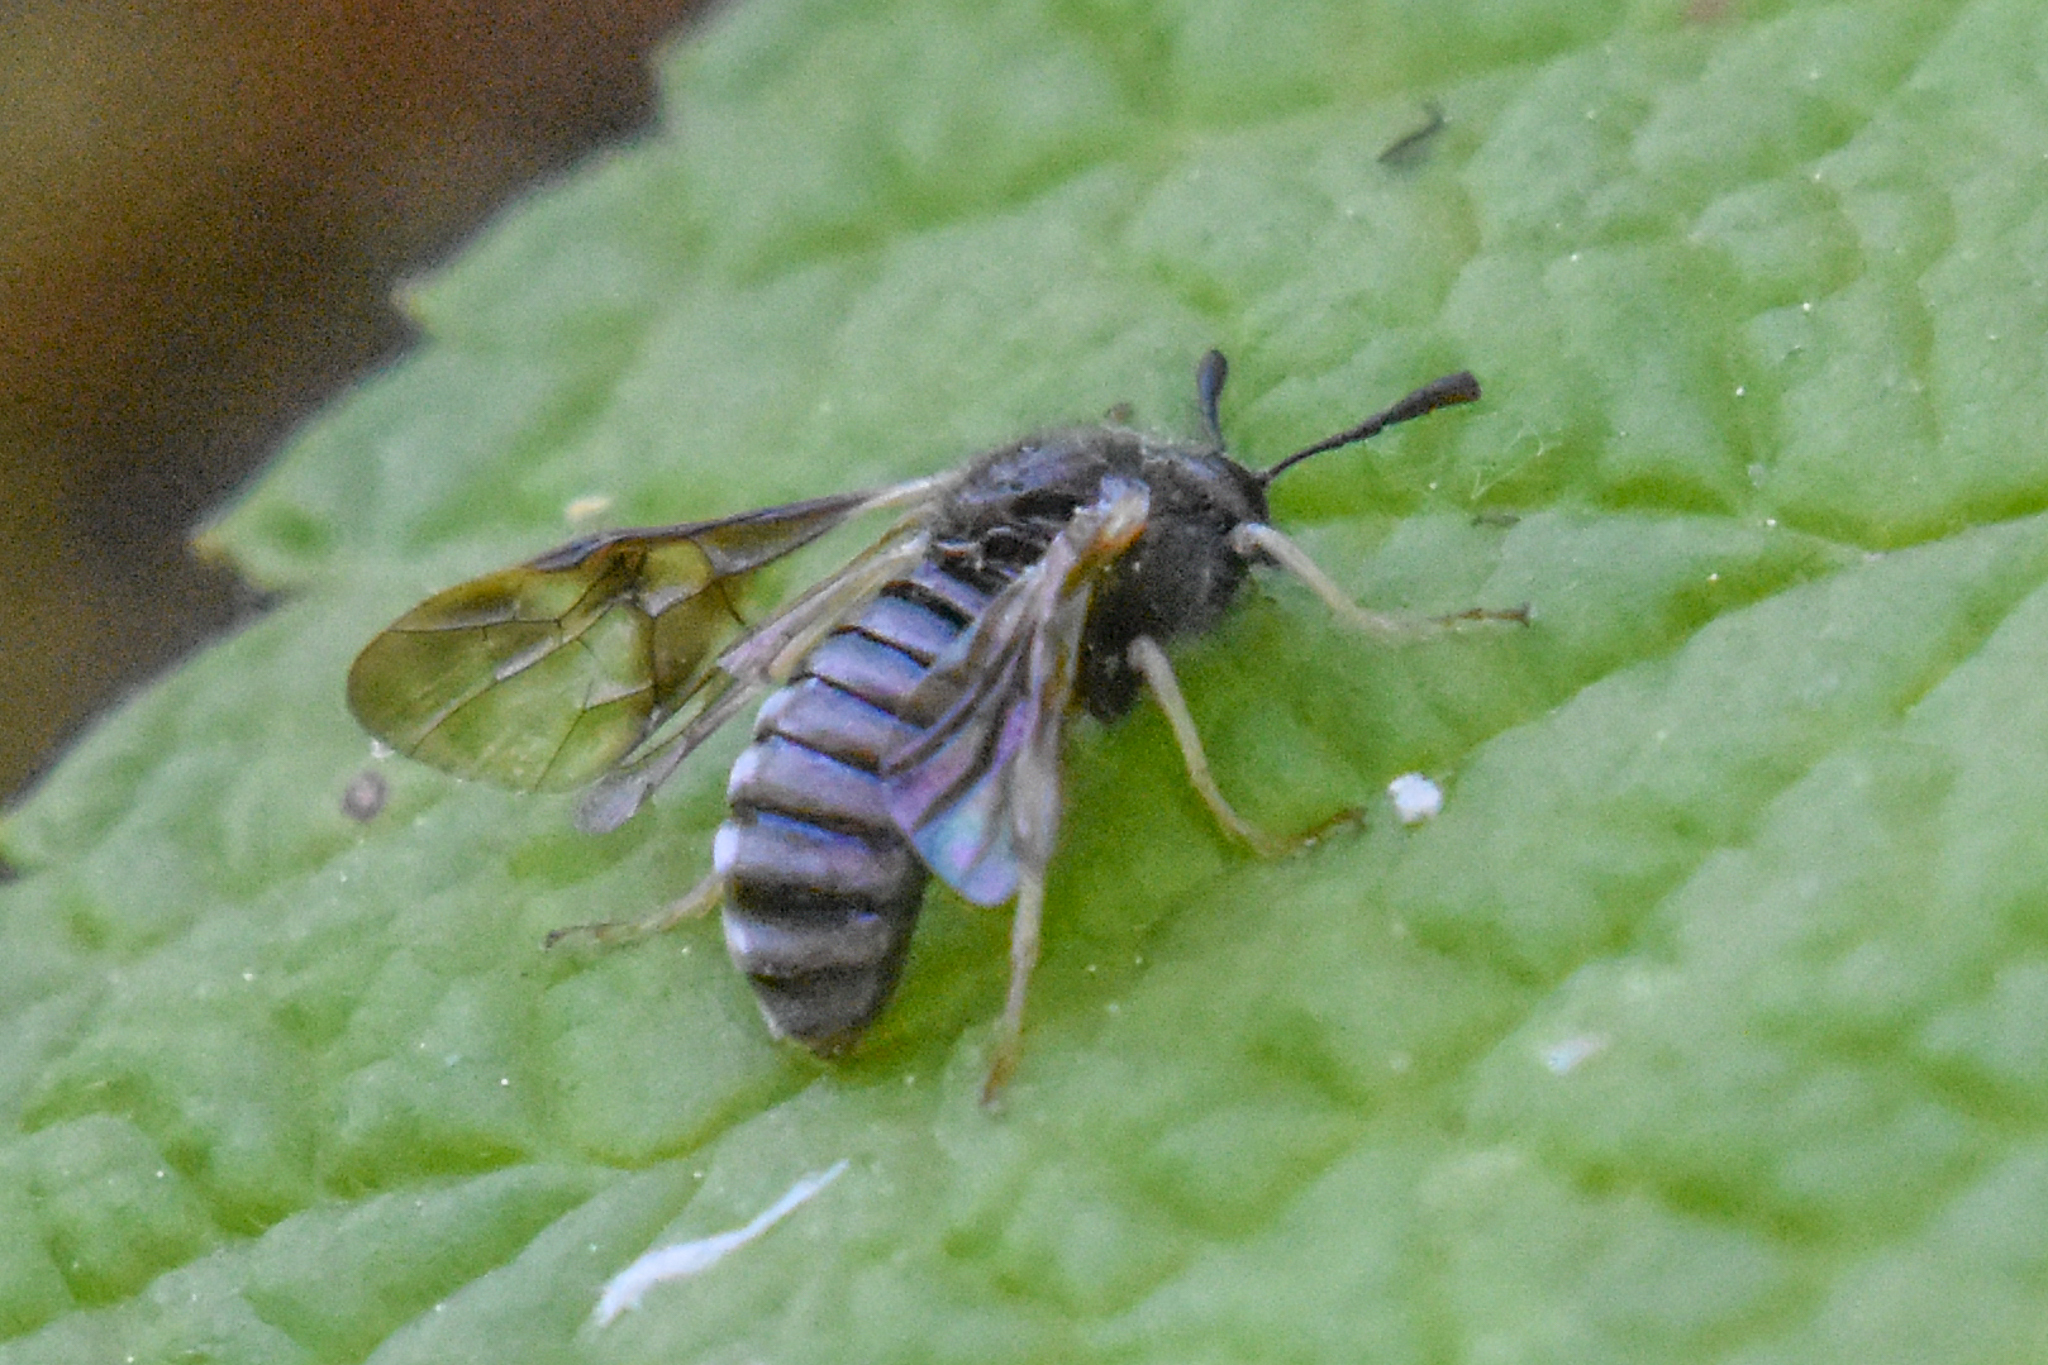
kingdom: Animalia
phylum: Arthropoda
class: Insecta
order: Hymenoptera
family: Cimbicidae
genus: Abia
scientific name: Abia americana
